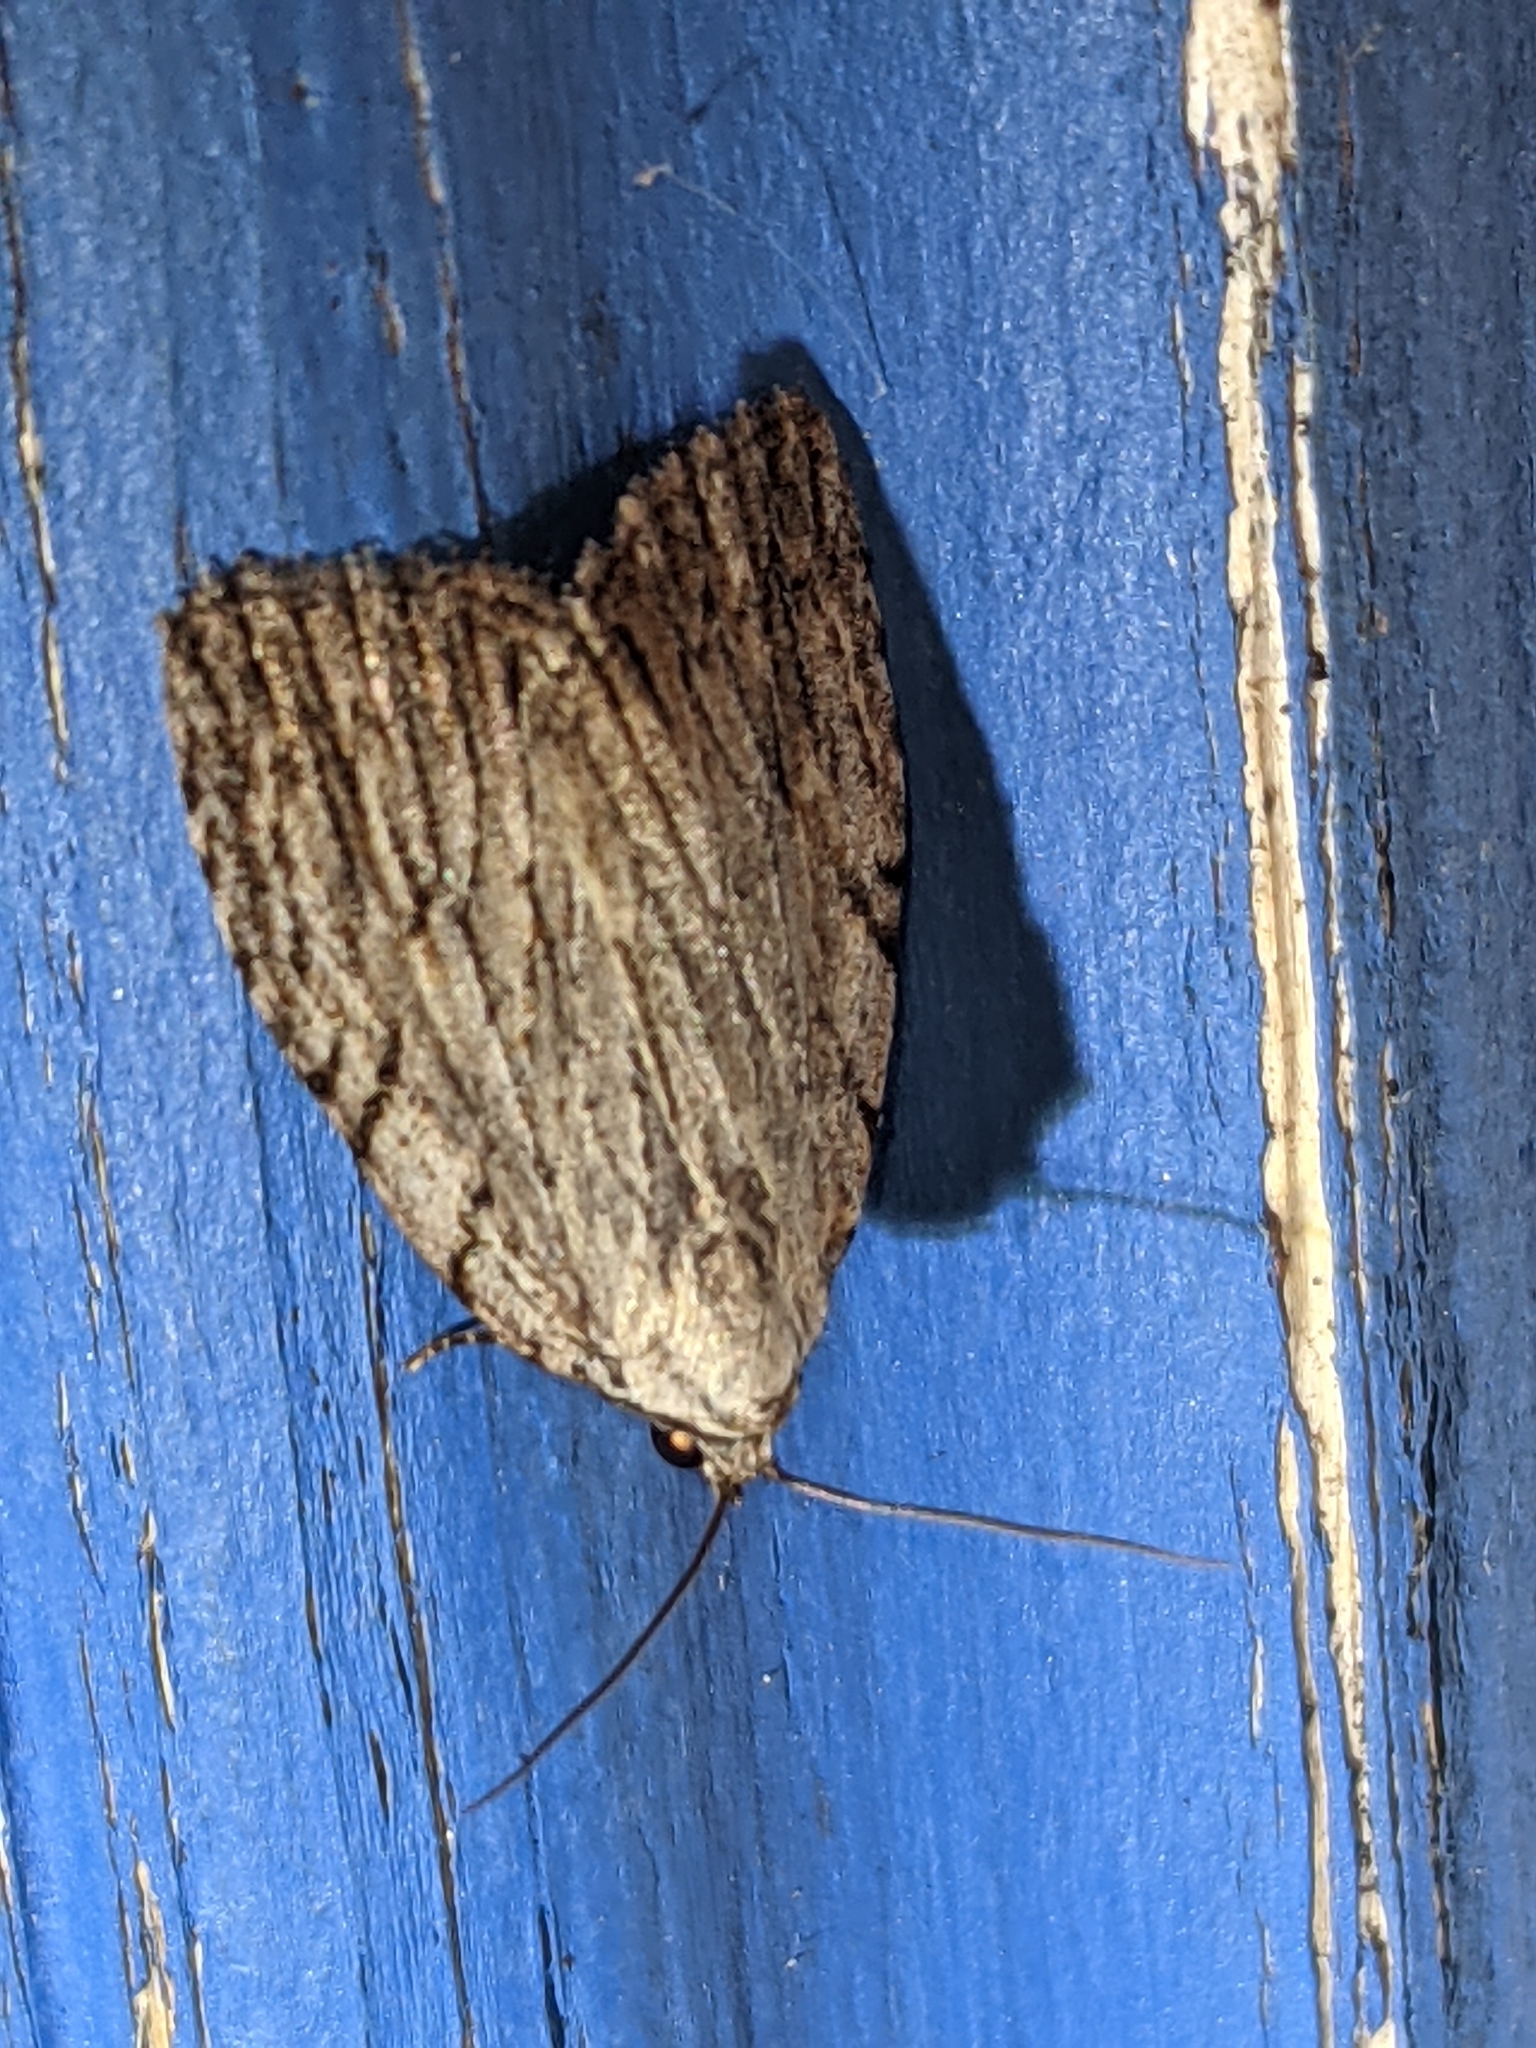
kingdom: Animalia
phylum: Arthropoda
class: Insecta
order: Lepidoptera
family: Noctuidae
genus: Balsa
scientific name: Balsa tristrigella
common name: Three-lined balsa moth
